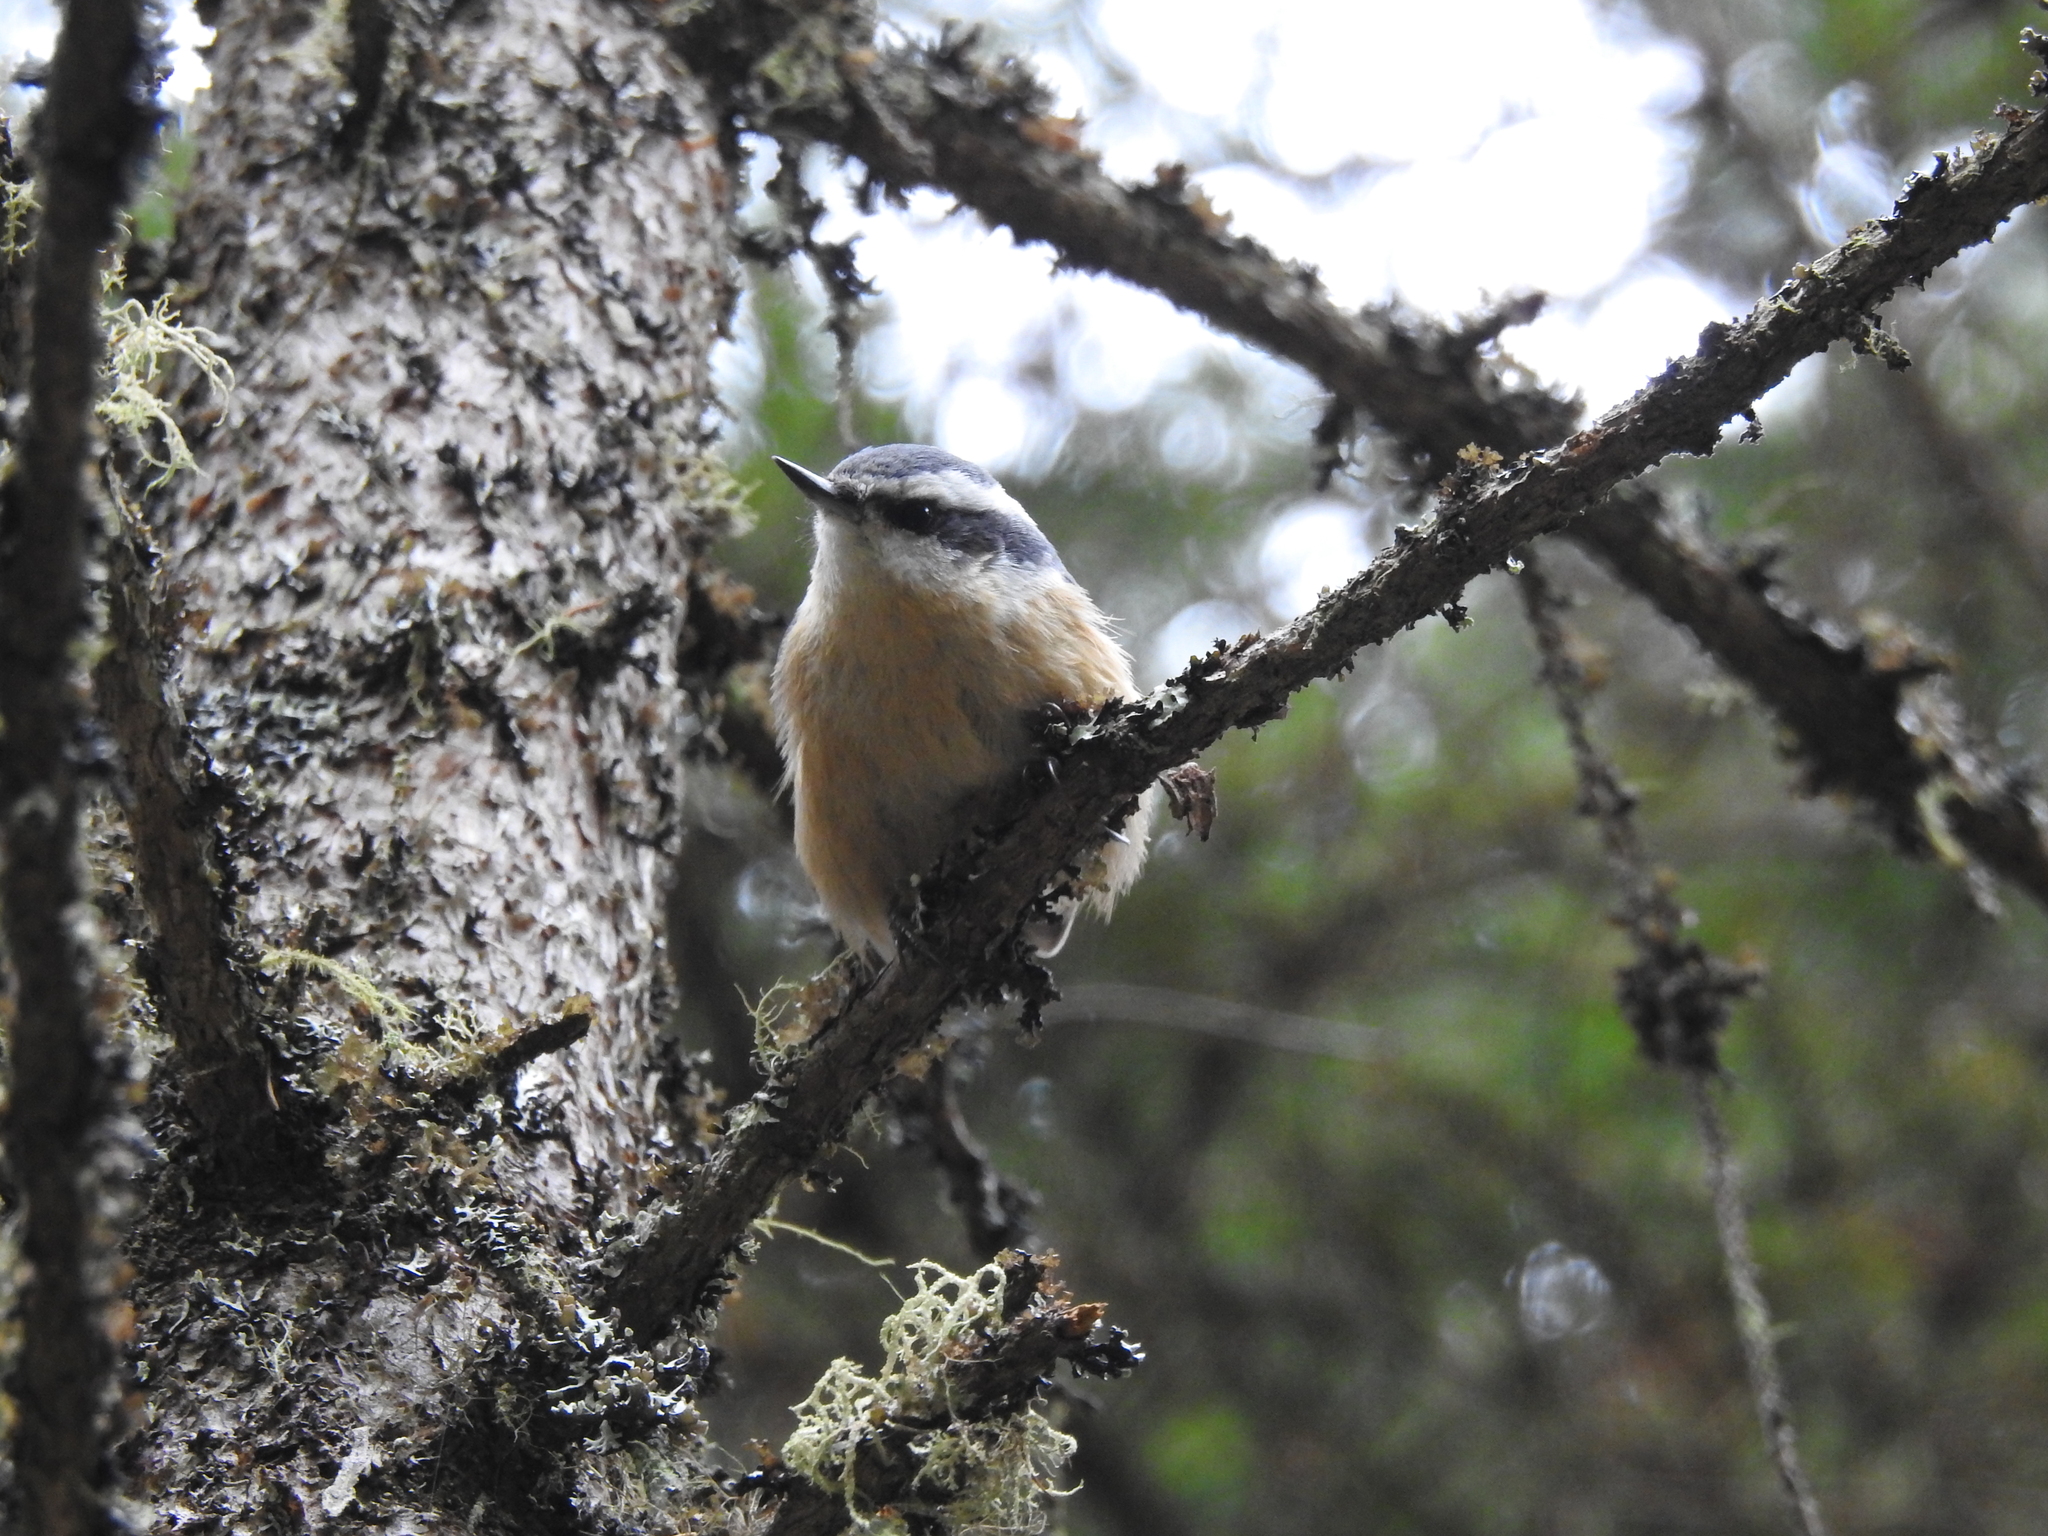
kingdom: Animalia
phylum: Chordata
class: Aves
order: Passeriformes
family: Sittidae
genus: Sitta
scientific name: Sitta canadensis
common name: Red-breasted nuthatch
